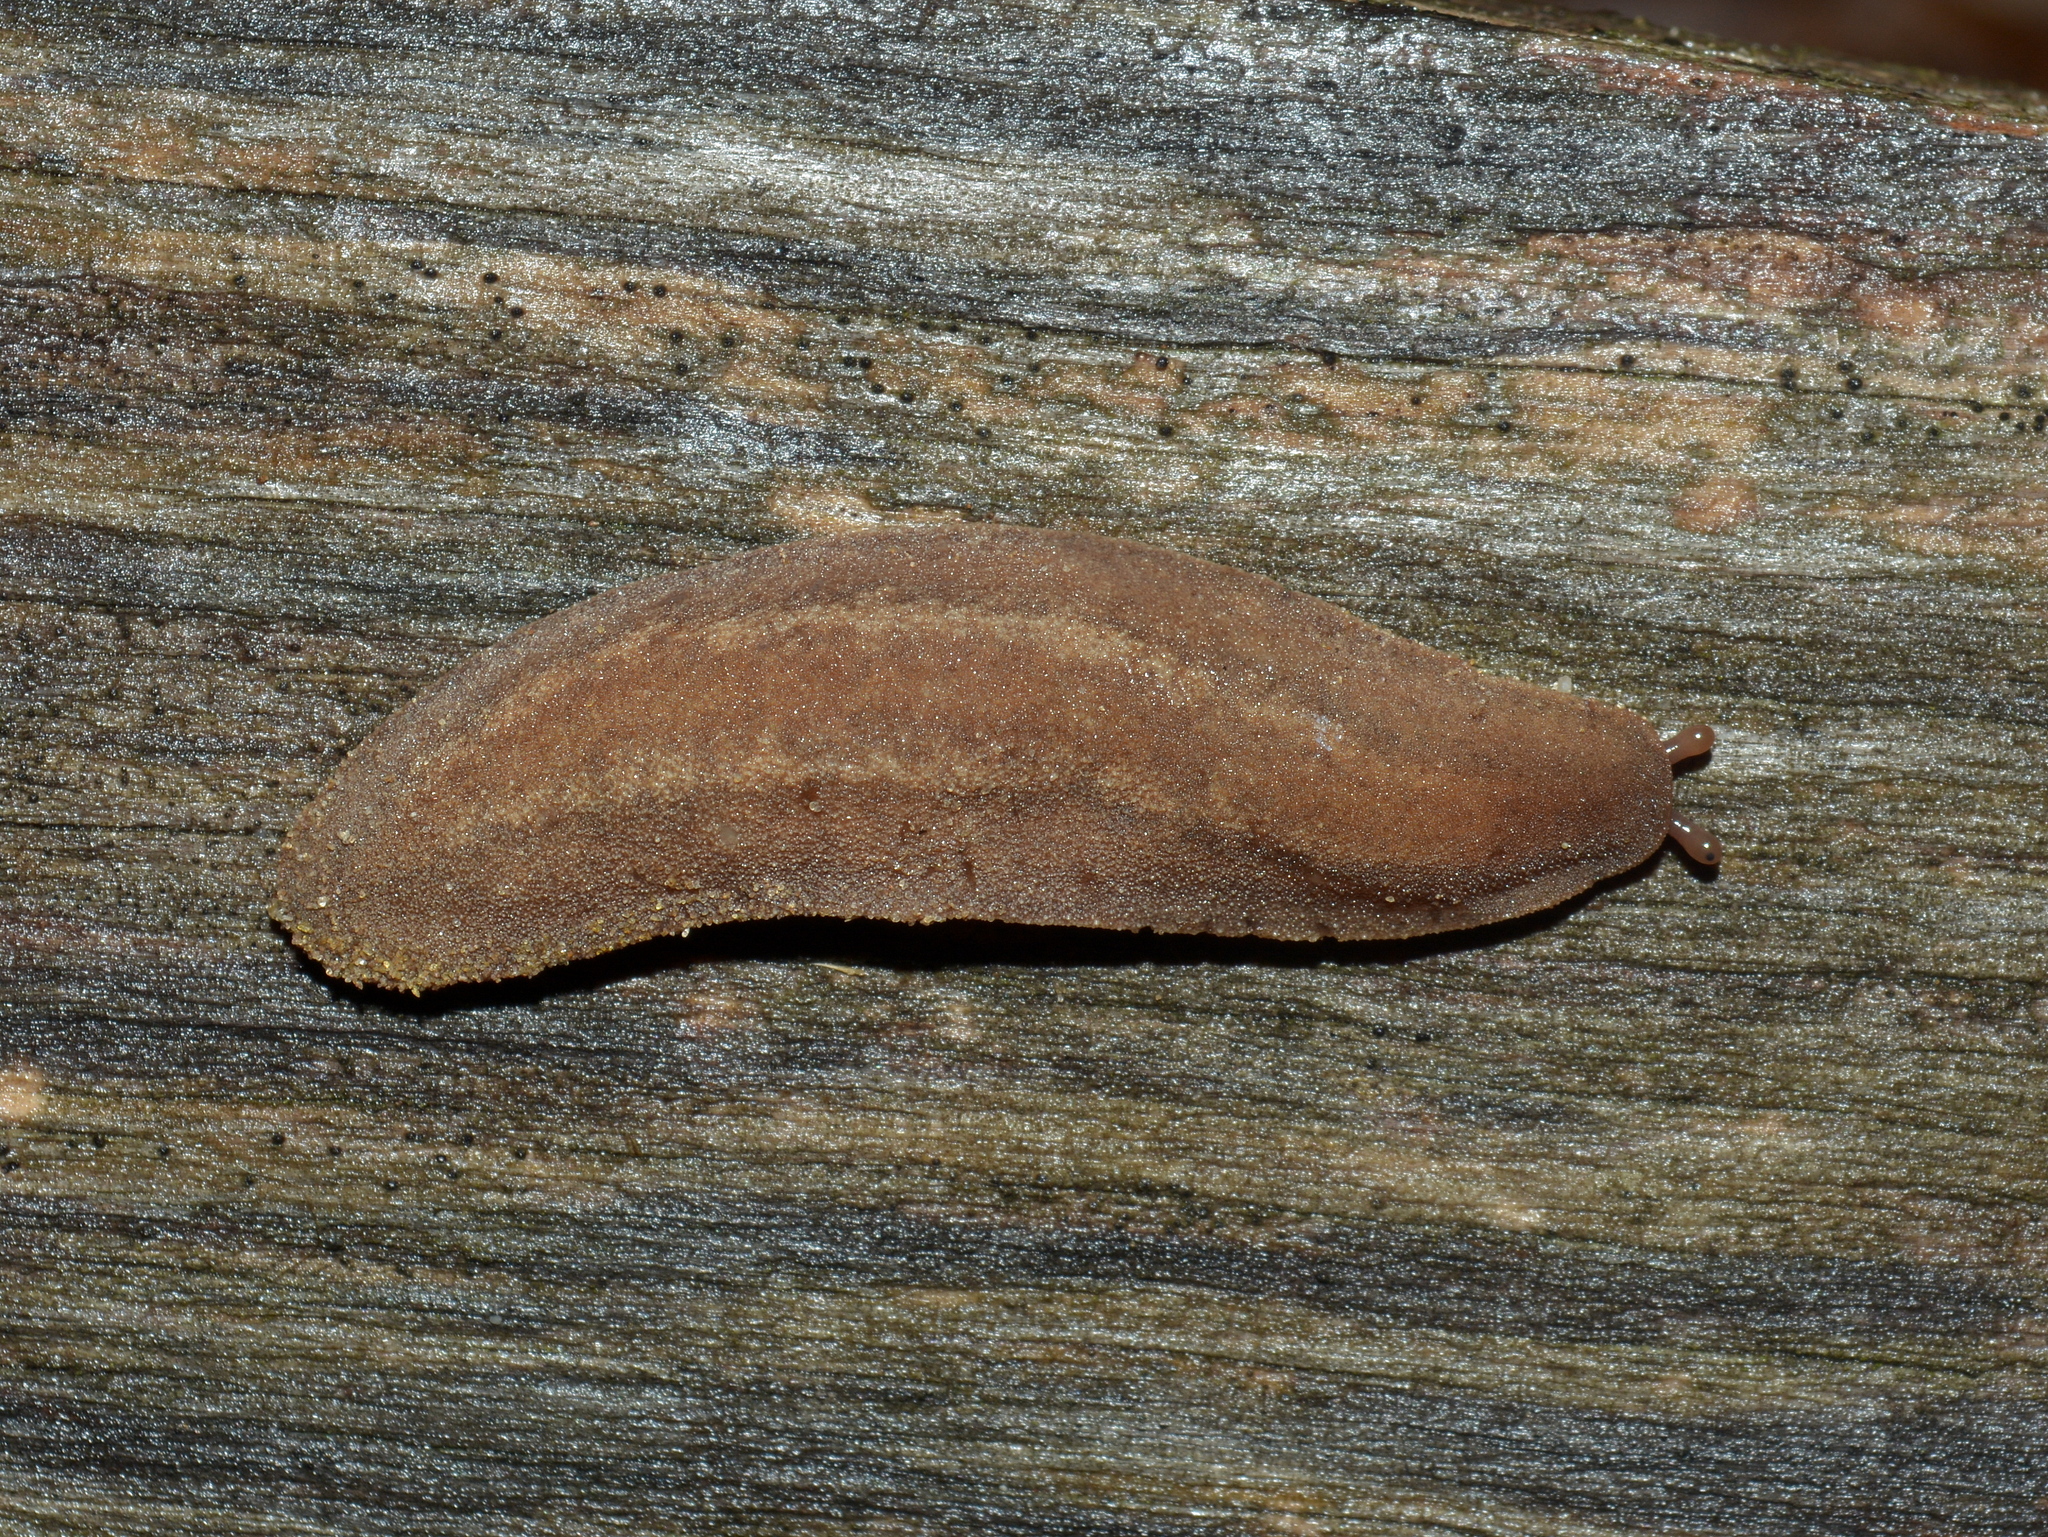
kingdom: Animalia
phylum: Mollusca
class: Gastropoda
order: Systellommatophora
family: Veronicellidae
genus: Phyllocaulis
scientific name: Phyllocaulis renschi
